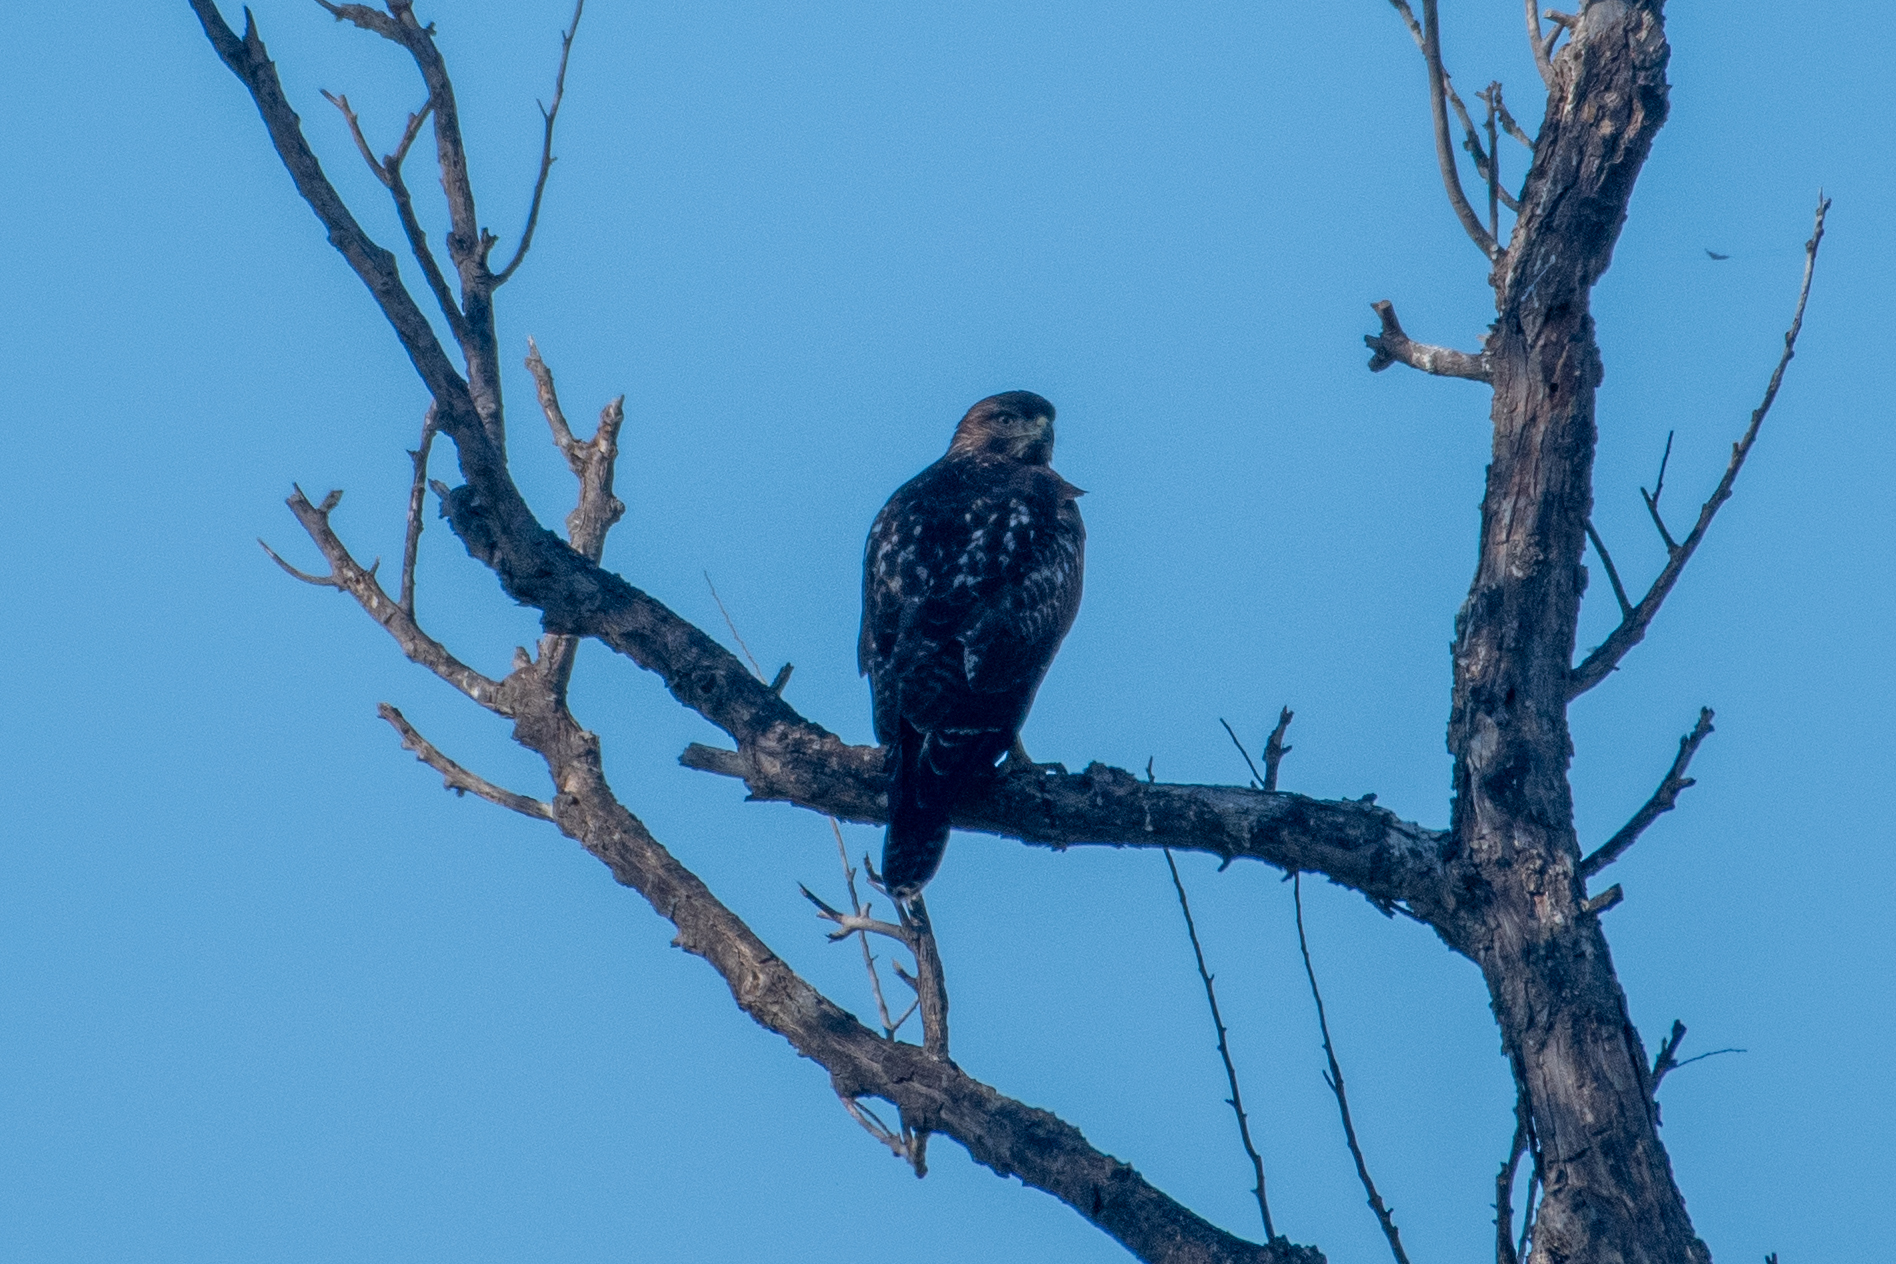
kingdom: Animalia
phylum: Chordata
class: Aves
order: Accipitriformes
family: Accipitridae
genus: Buteo
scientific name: Buteo jamaicensis
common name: Red-tailed hawk
